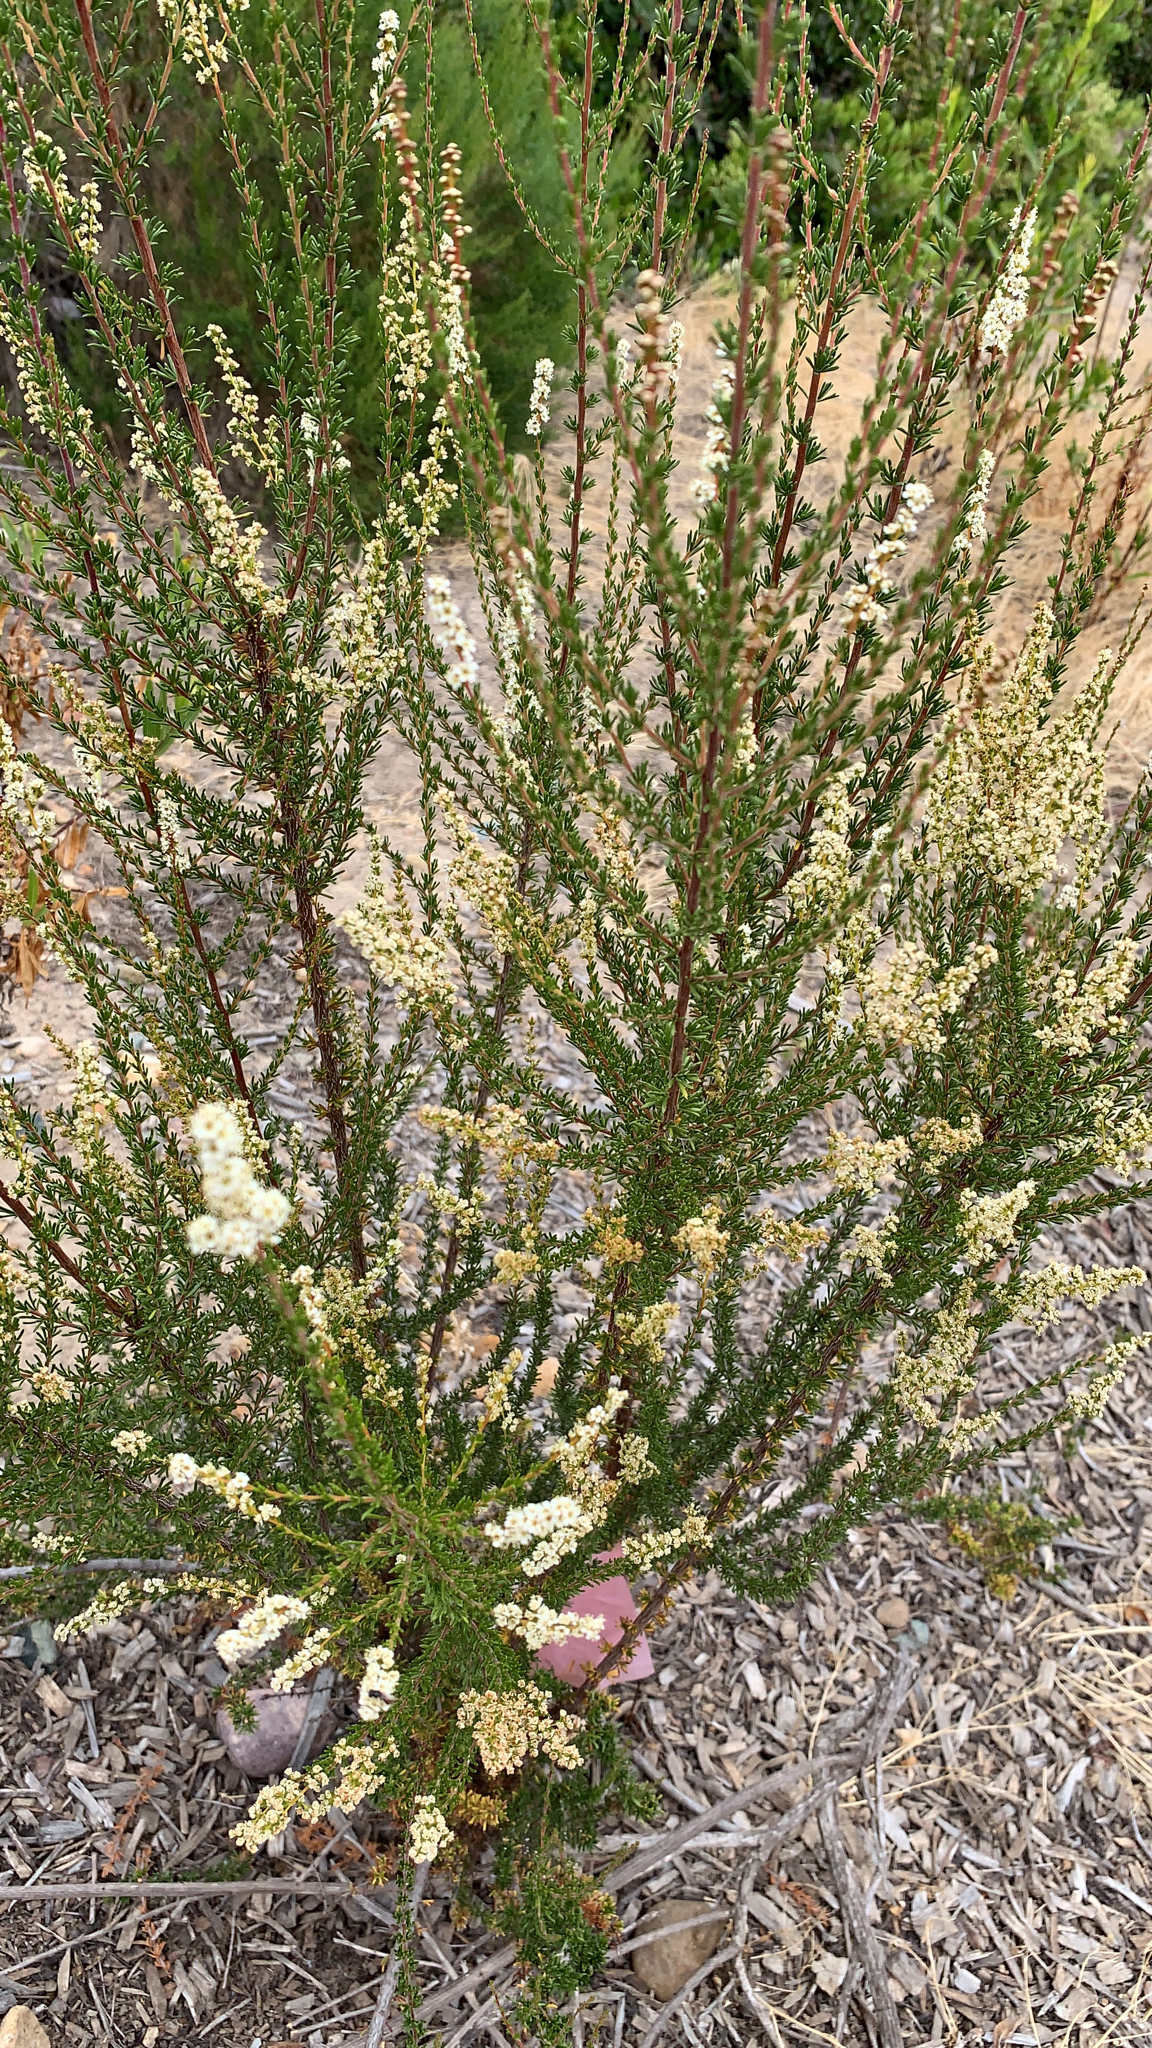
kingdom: Plantae
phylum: Tracheophyta
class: Magnoliopsida
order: Rosales
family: Rosaceae
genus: Adenostoma
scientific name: Adenostoma fasciculatum
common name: Chamise
